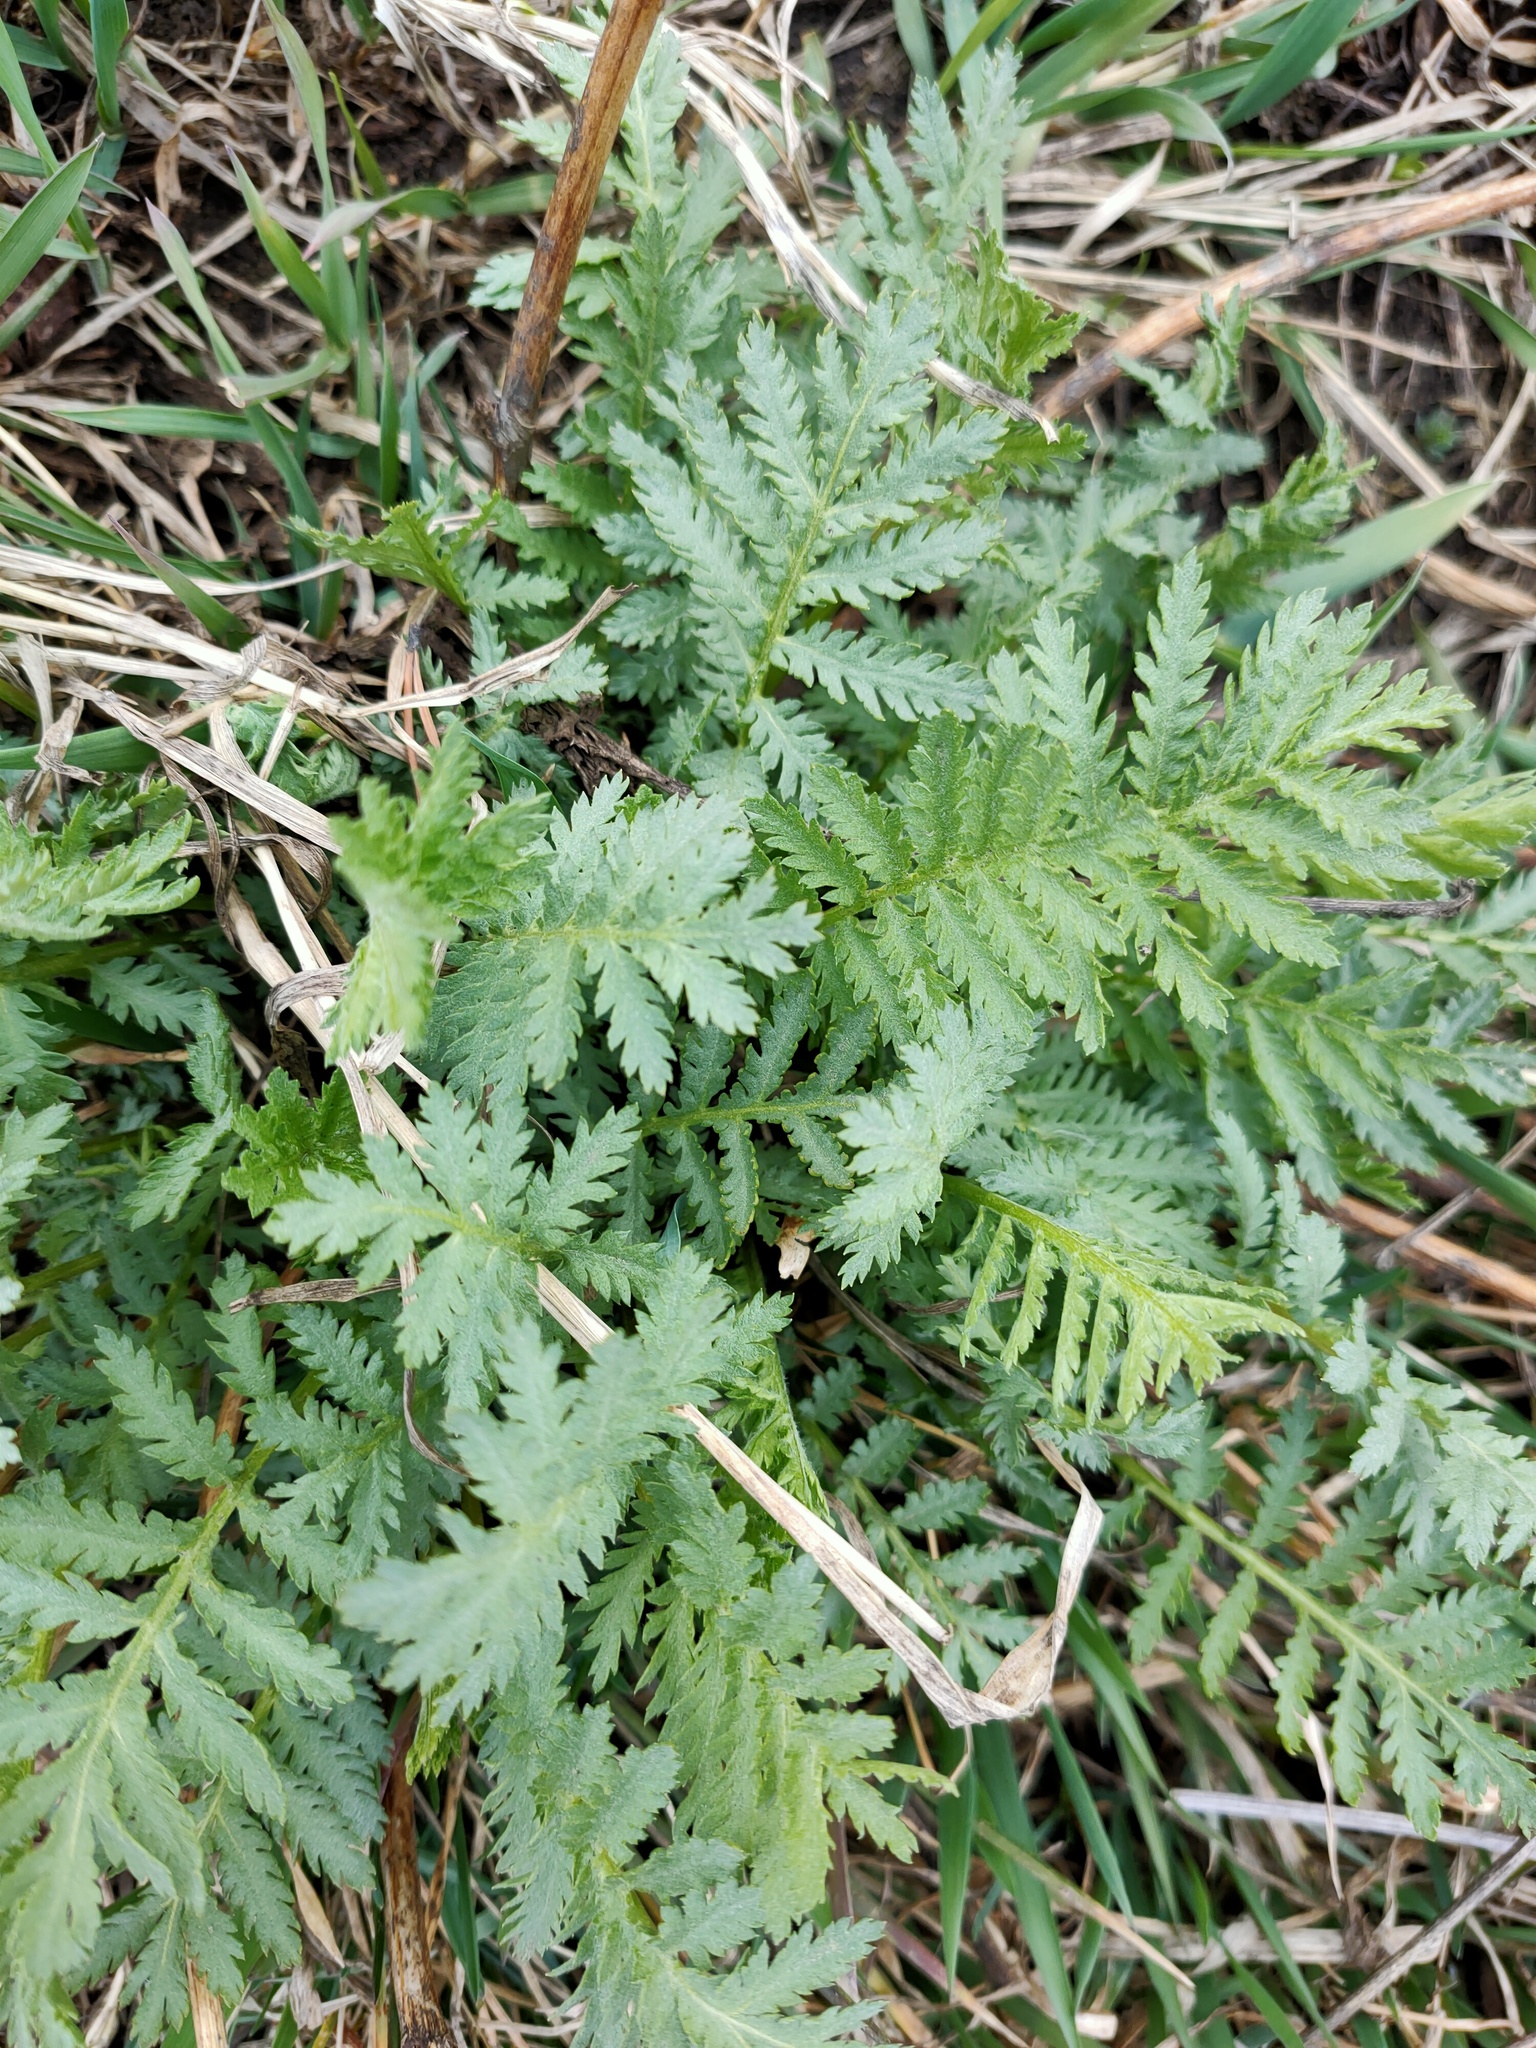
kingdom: Plantae
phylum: Tracheophyta
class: Magnoliopsida
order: Asterales
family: Asteraceae
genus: Tanacetum
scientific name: Tanacetum vulgare
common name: Common tansy
